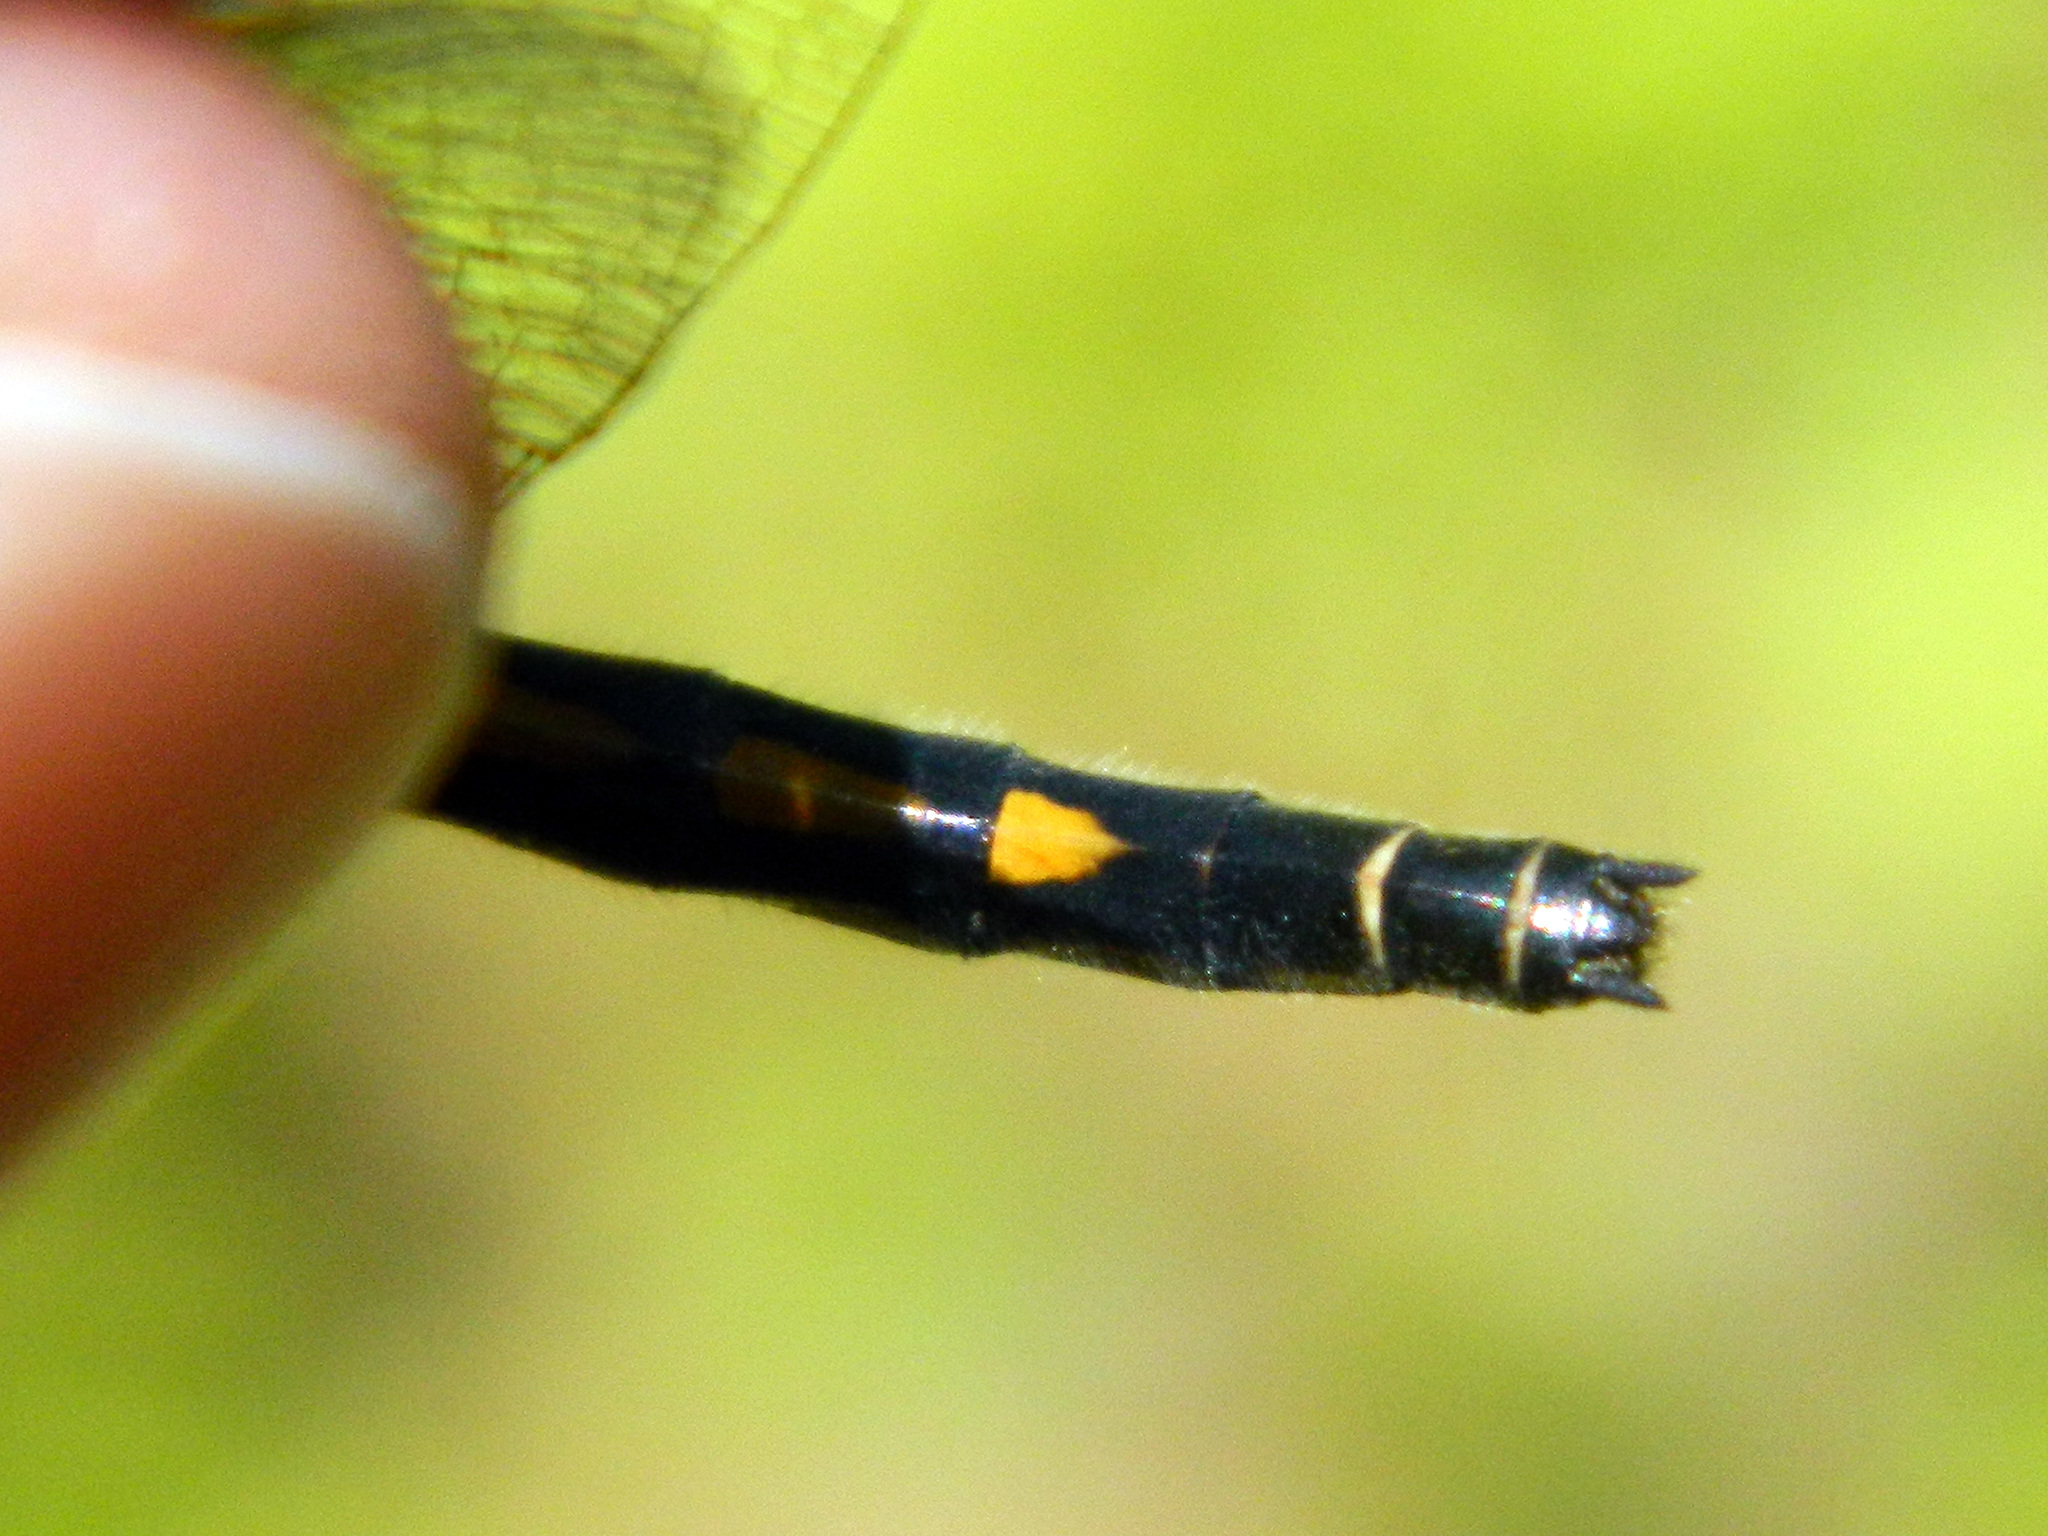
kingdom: Animalia
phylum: Arthropoda
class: Insecta
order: Odonata
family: Libellulidae
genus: Leucorrhinia
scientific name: Leucorrhinia hudsonica
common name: Hudsonian whiteface
